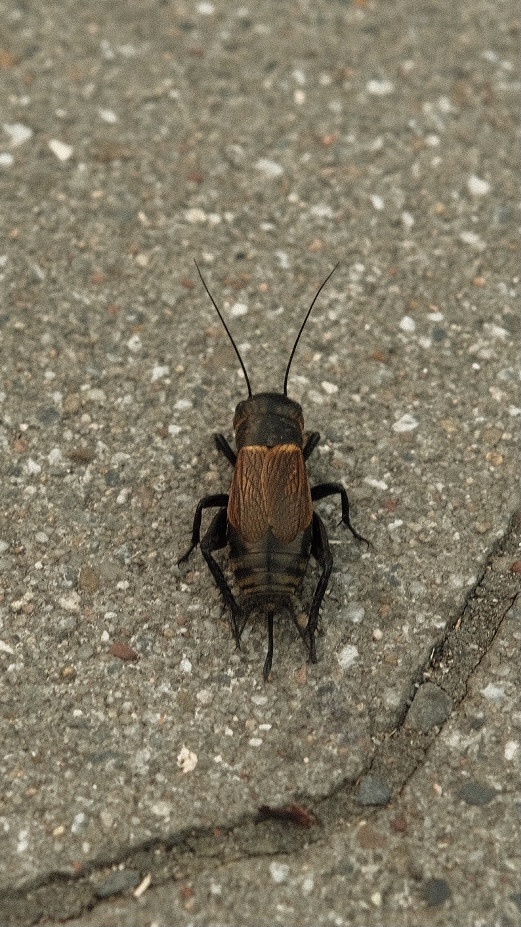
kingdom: Animalia
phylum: Arthropoda
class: Insecta
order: Orthoptera
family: Gryllidae
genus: Gryllus
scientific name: Gryllus campestris
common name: Field cricket
